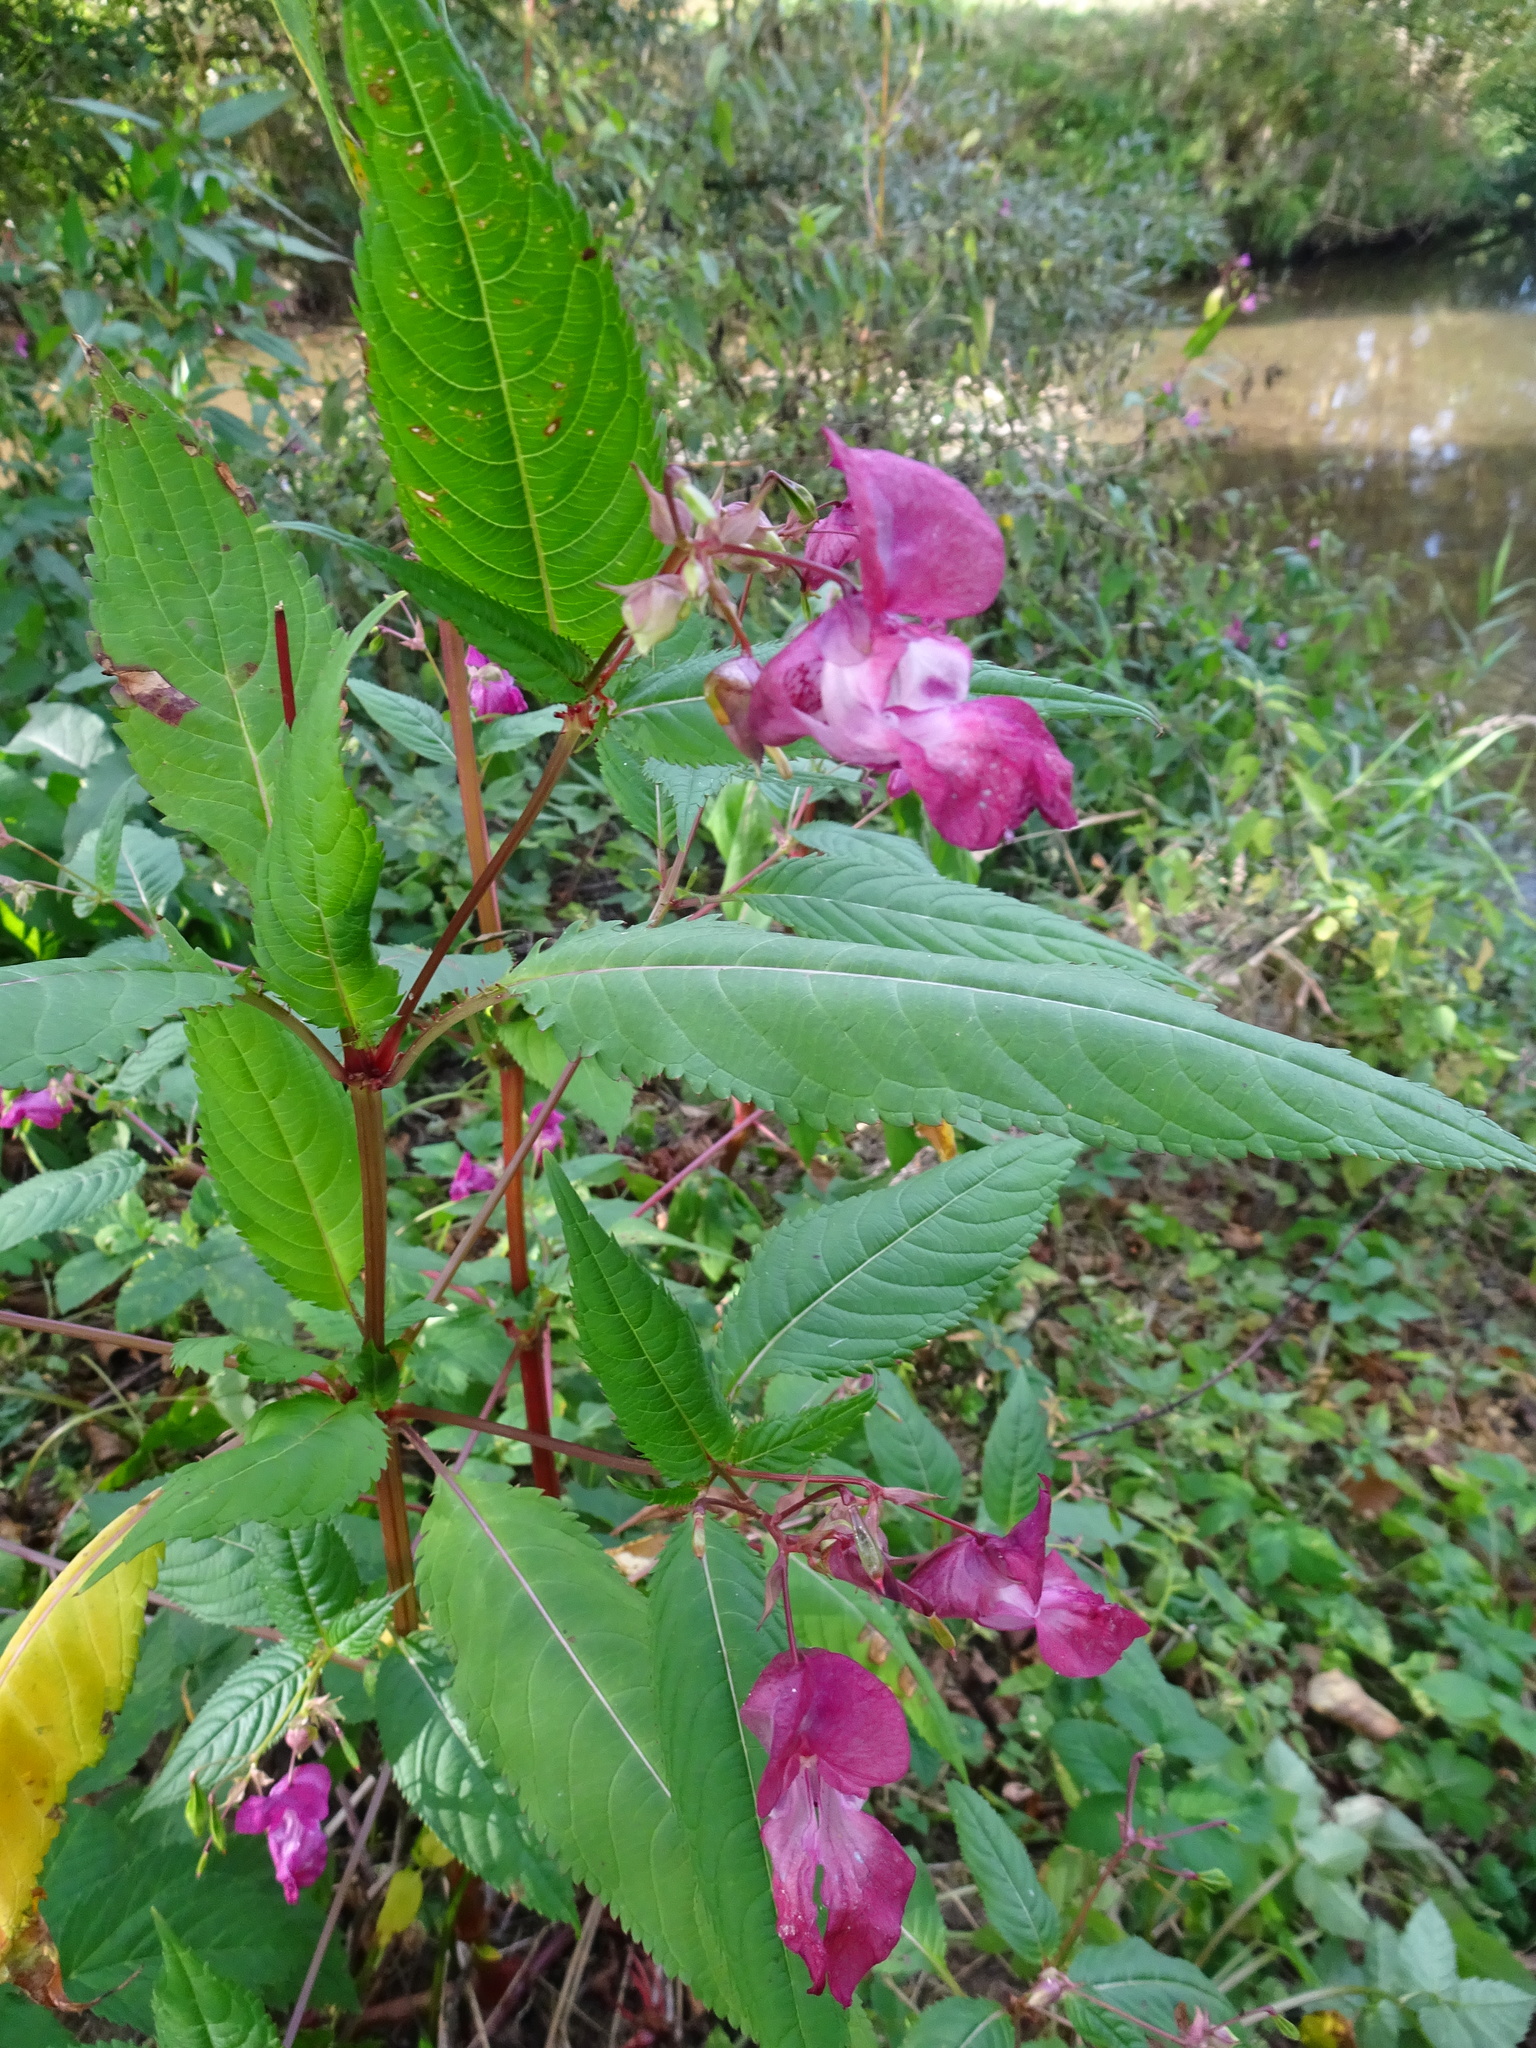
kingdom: Plantae
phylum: Tracheophyta
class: Magnoliopsida
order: Ericales
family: Balsaminaceae
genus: Impatiens
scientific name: Impatiens glandulifera
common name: Himalayan balsam
